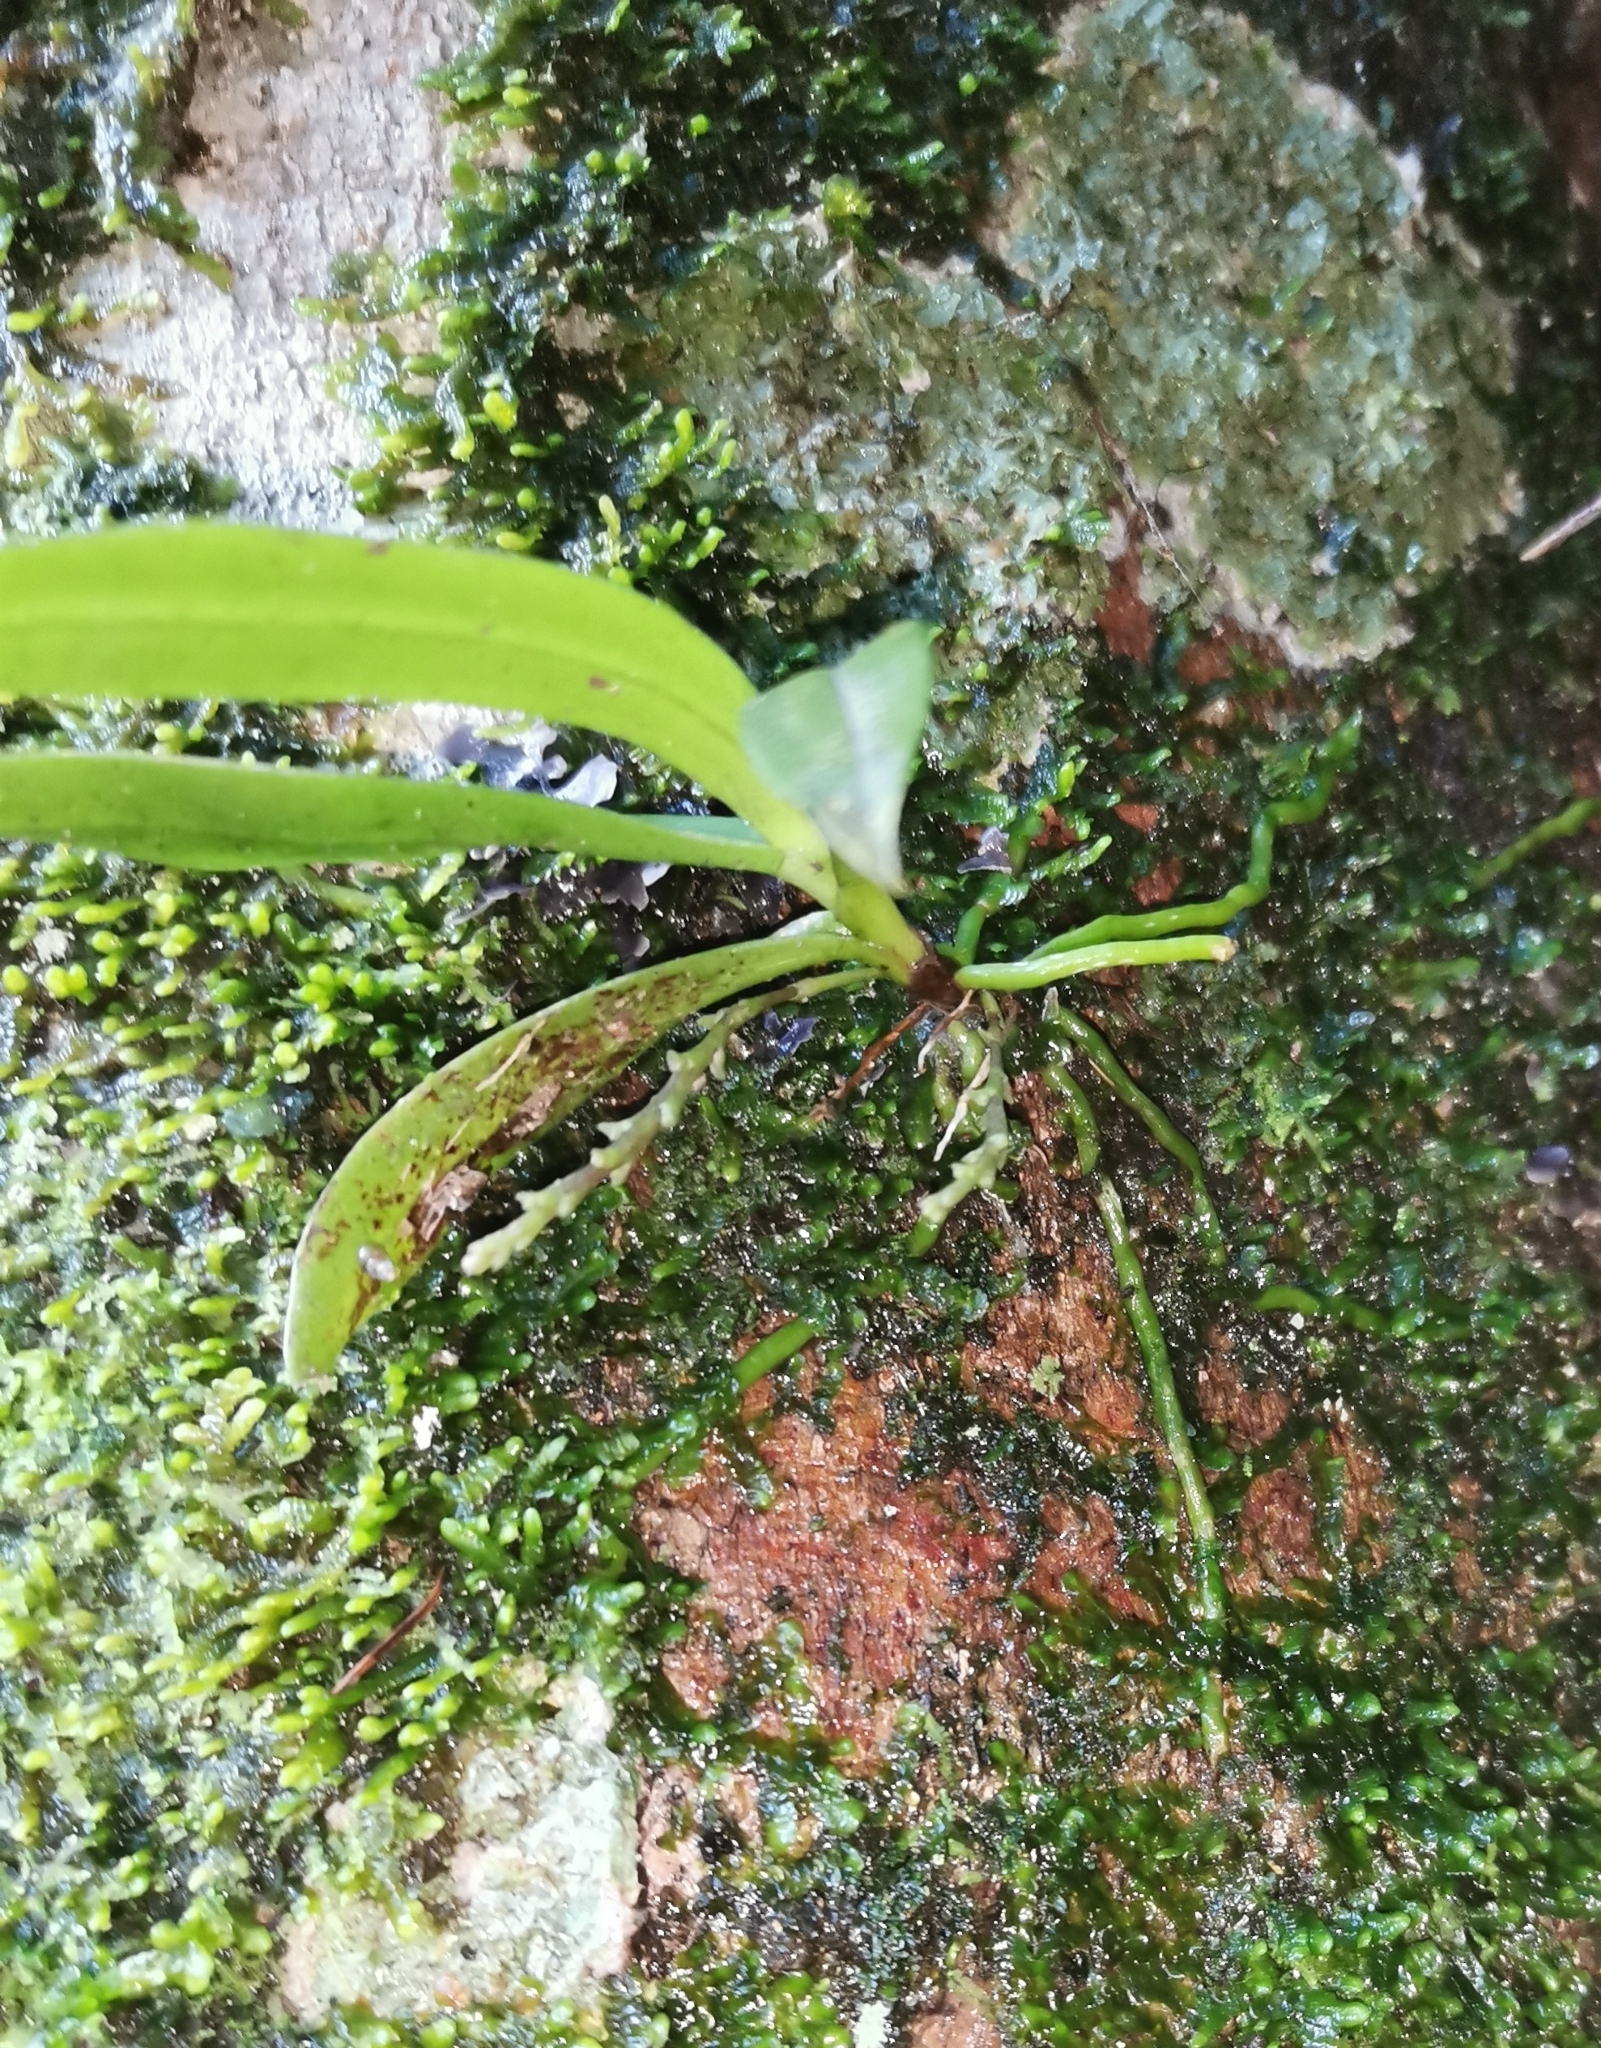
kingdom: Plantae
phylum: Tracheophyta
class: Liliopsida
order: Asparagales
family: Orchidaceae
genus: Drymoanthus
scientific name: Drymoanthus adversus
